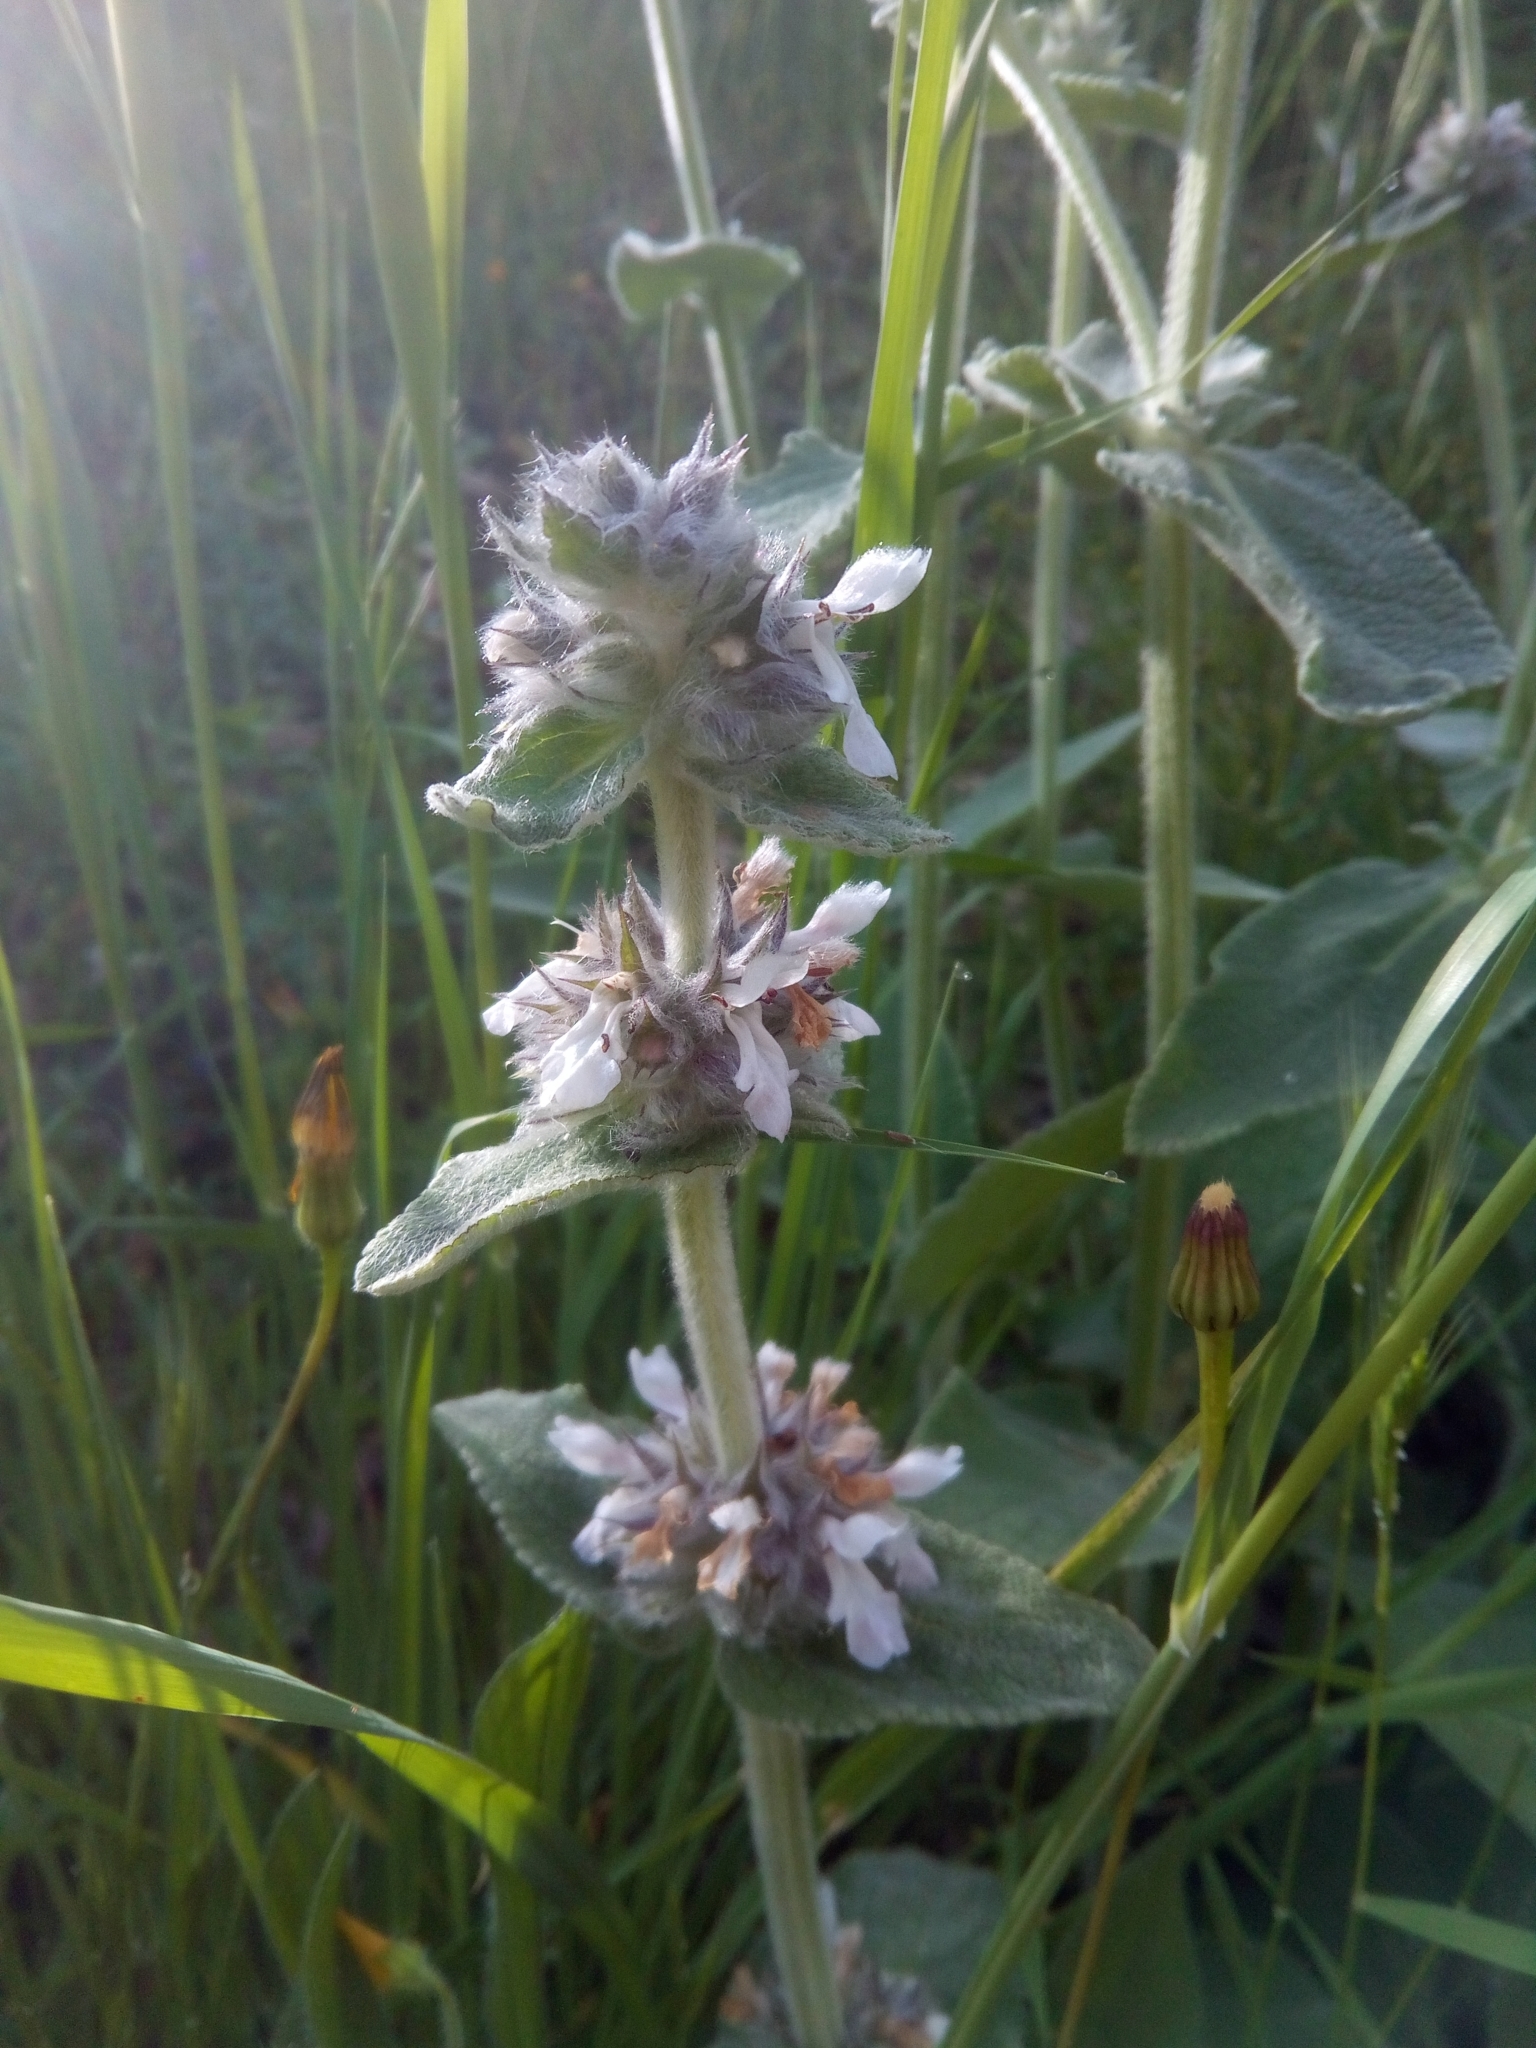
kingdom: Plantae
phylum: Tracheophyta
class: Magnoliopsida
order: Lamiales
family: Lamiaceae
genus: Stachys
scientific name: Stachys germanica
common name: Downy woundwort
